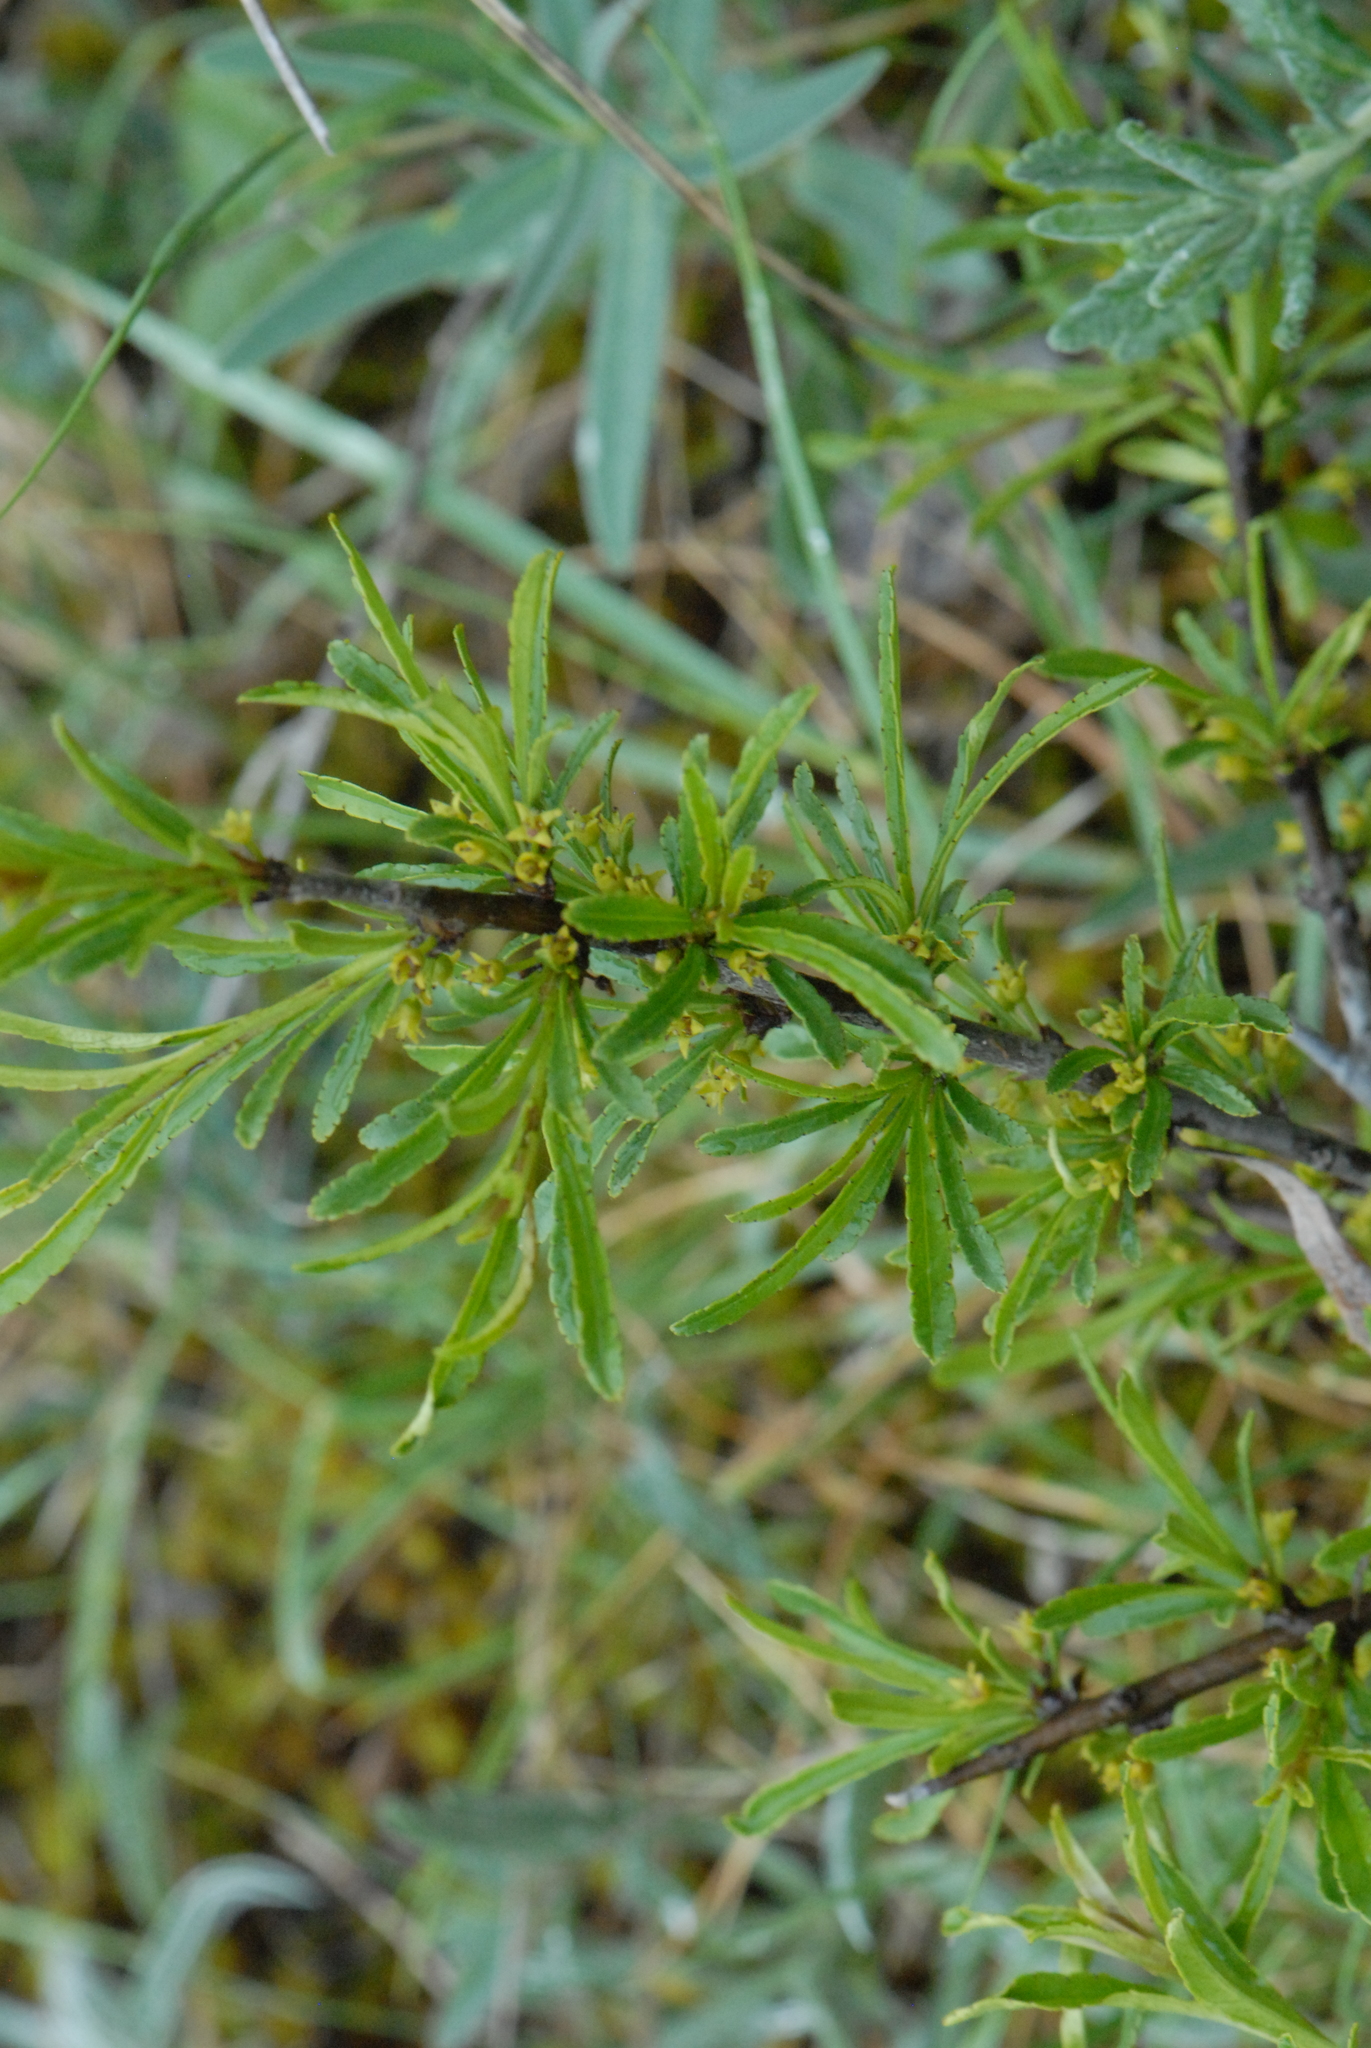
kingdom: Plantae
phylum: Tracheophyta
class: Magnoliopsida
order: Rosales
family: Rhamnaceae
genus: Rhamnus
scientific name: Rhamnus erythroxyloides
